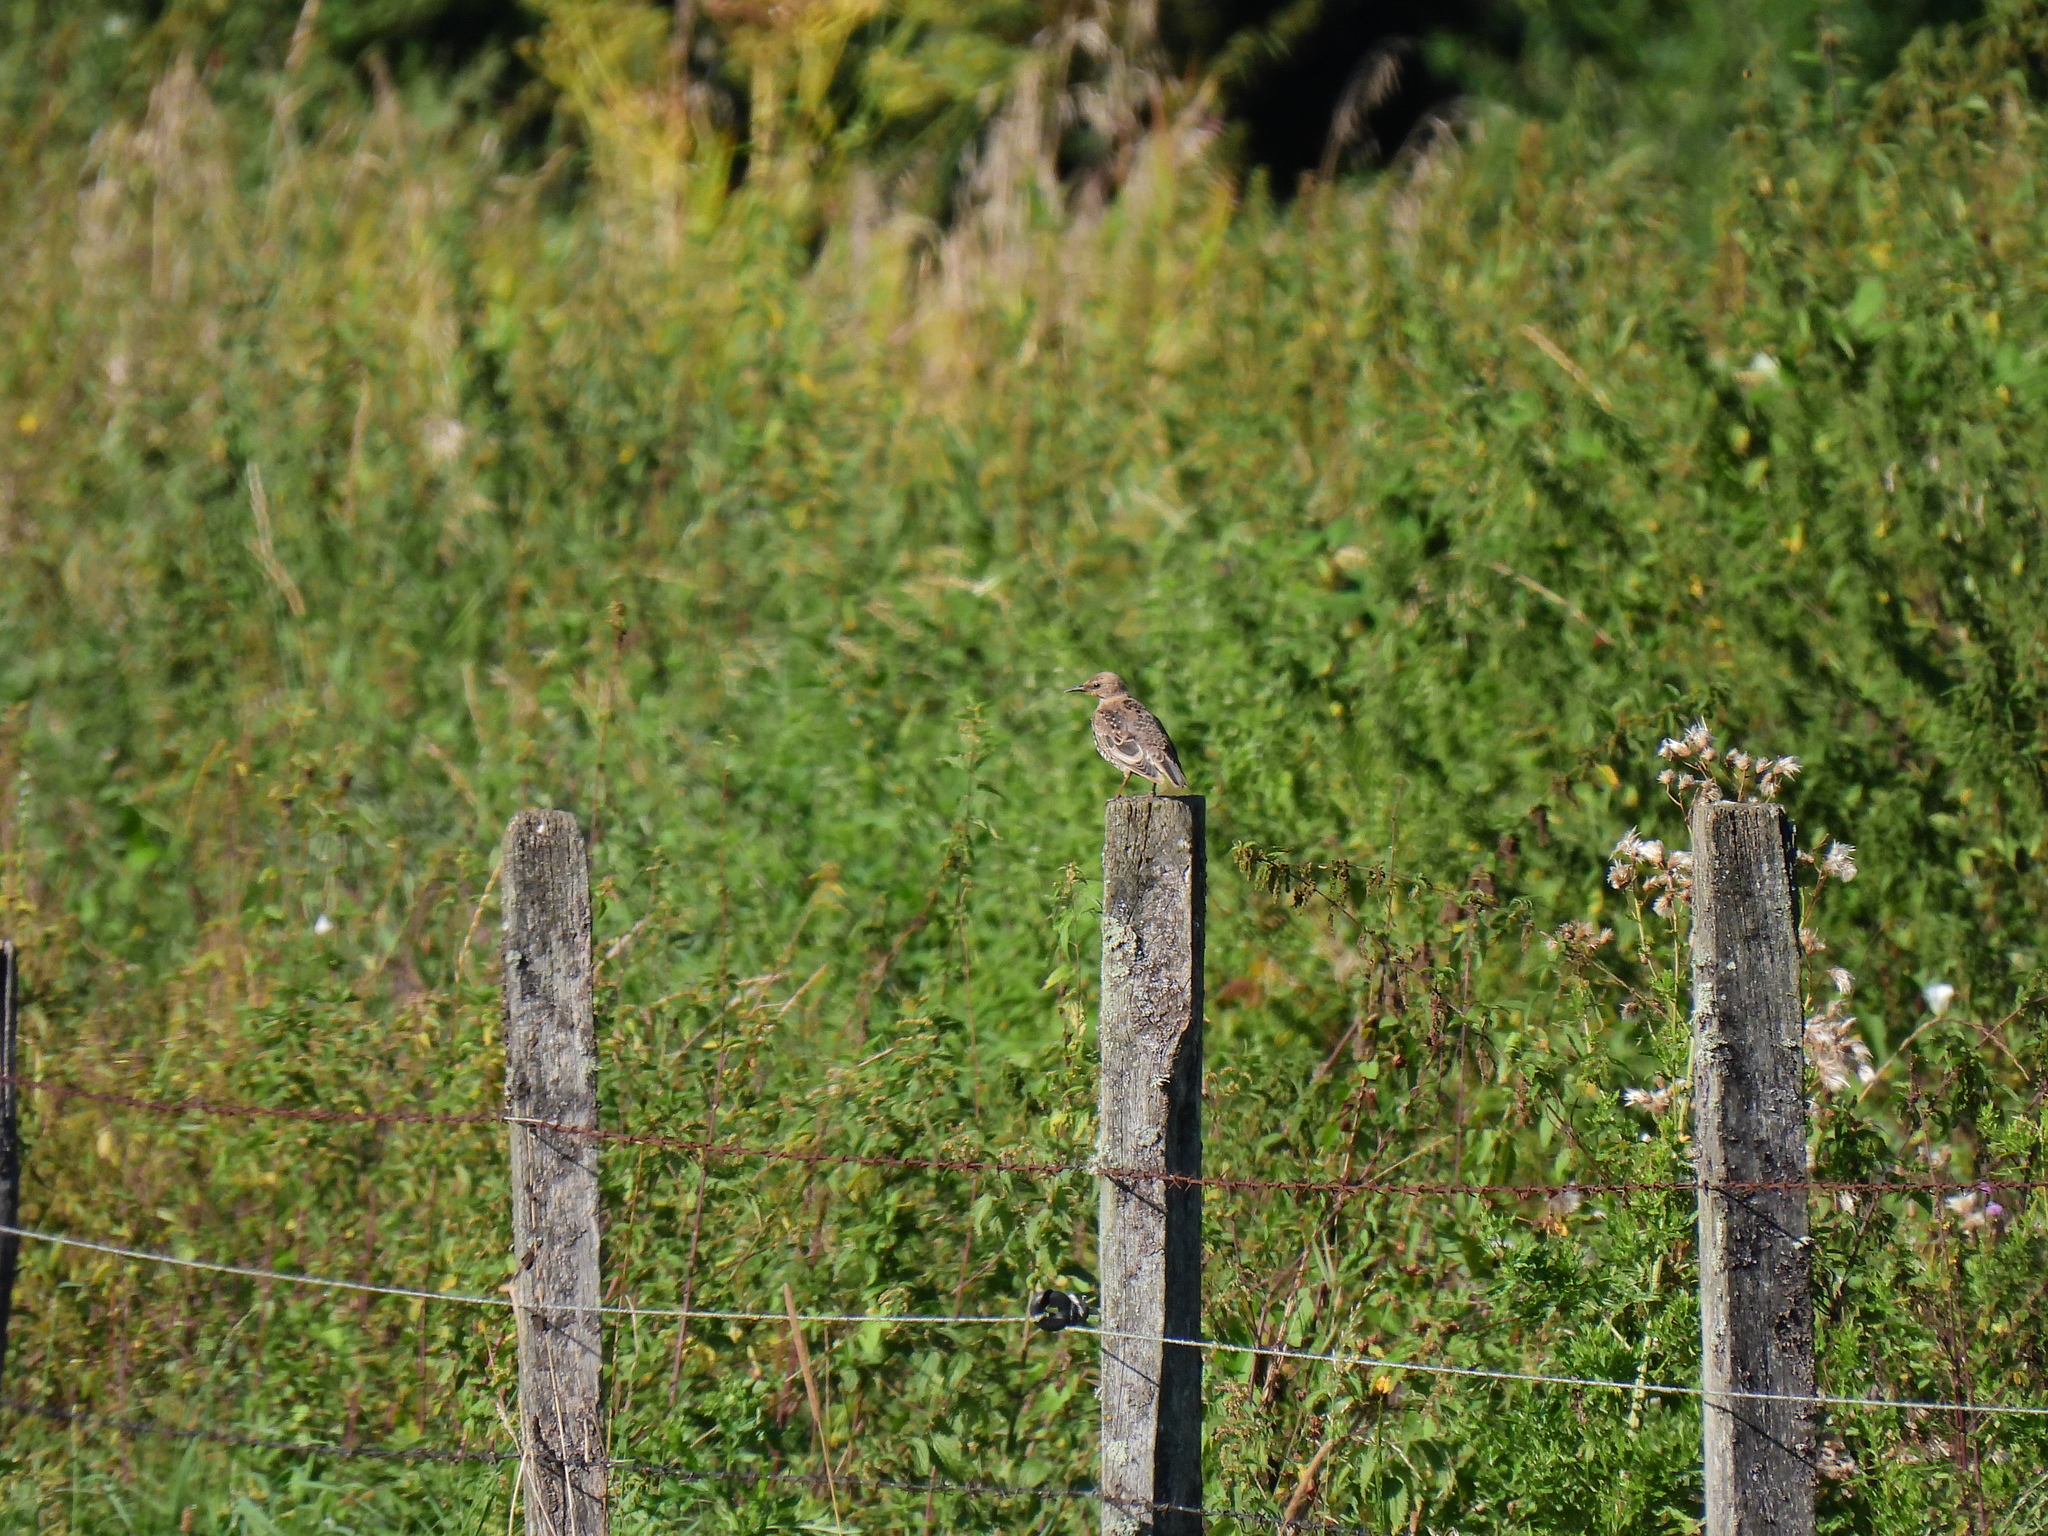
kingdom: Animalia
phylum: Chordata
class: Aves
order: Passeriformes
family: Sturnidae
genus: Sturnus
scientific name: Sturnus vulgaris
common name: Common starling
